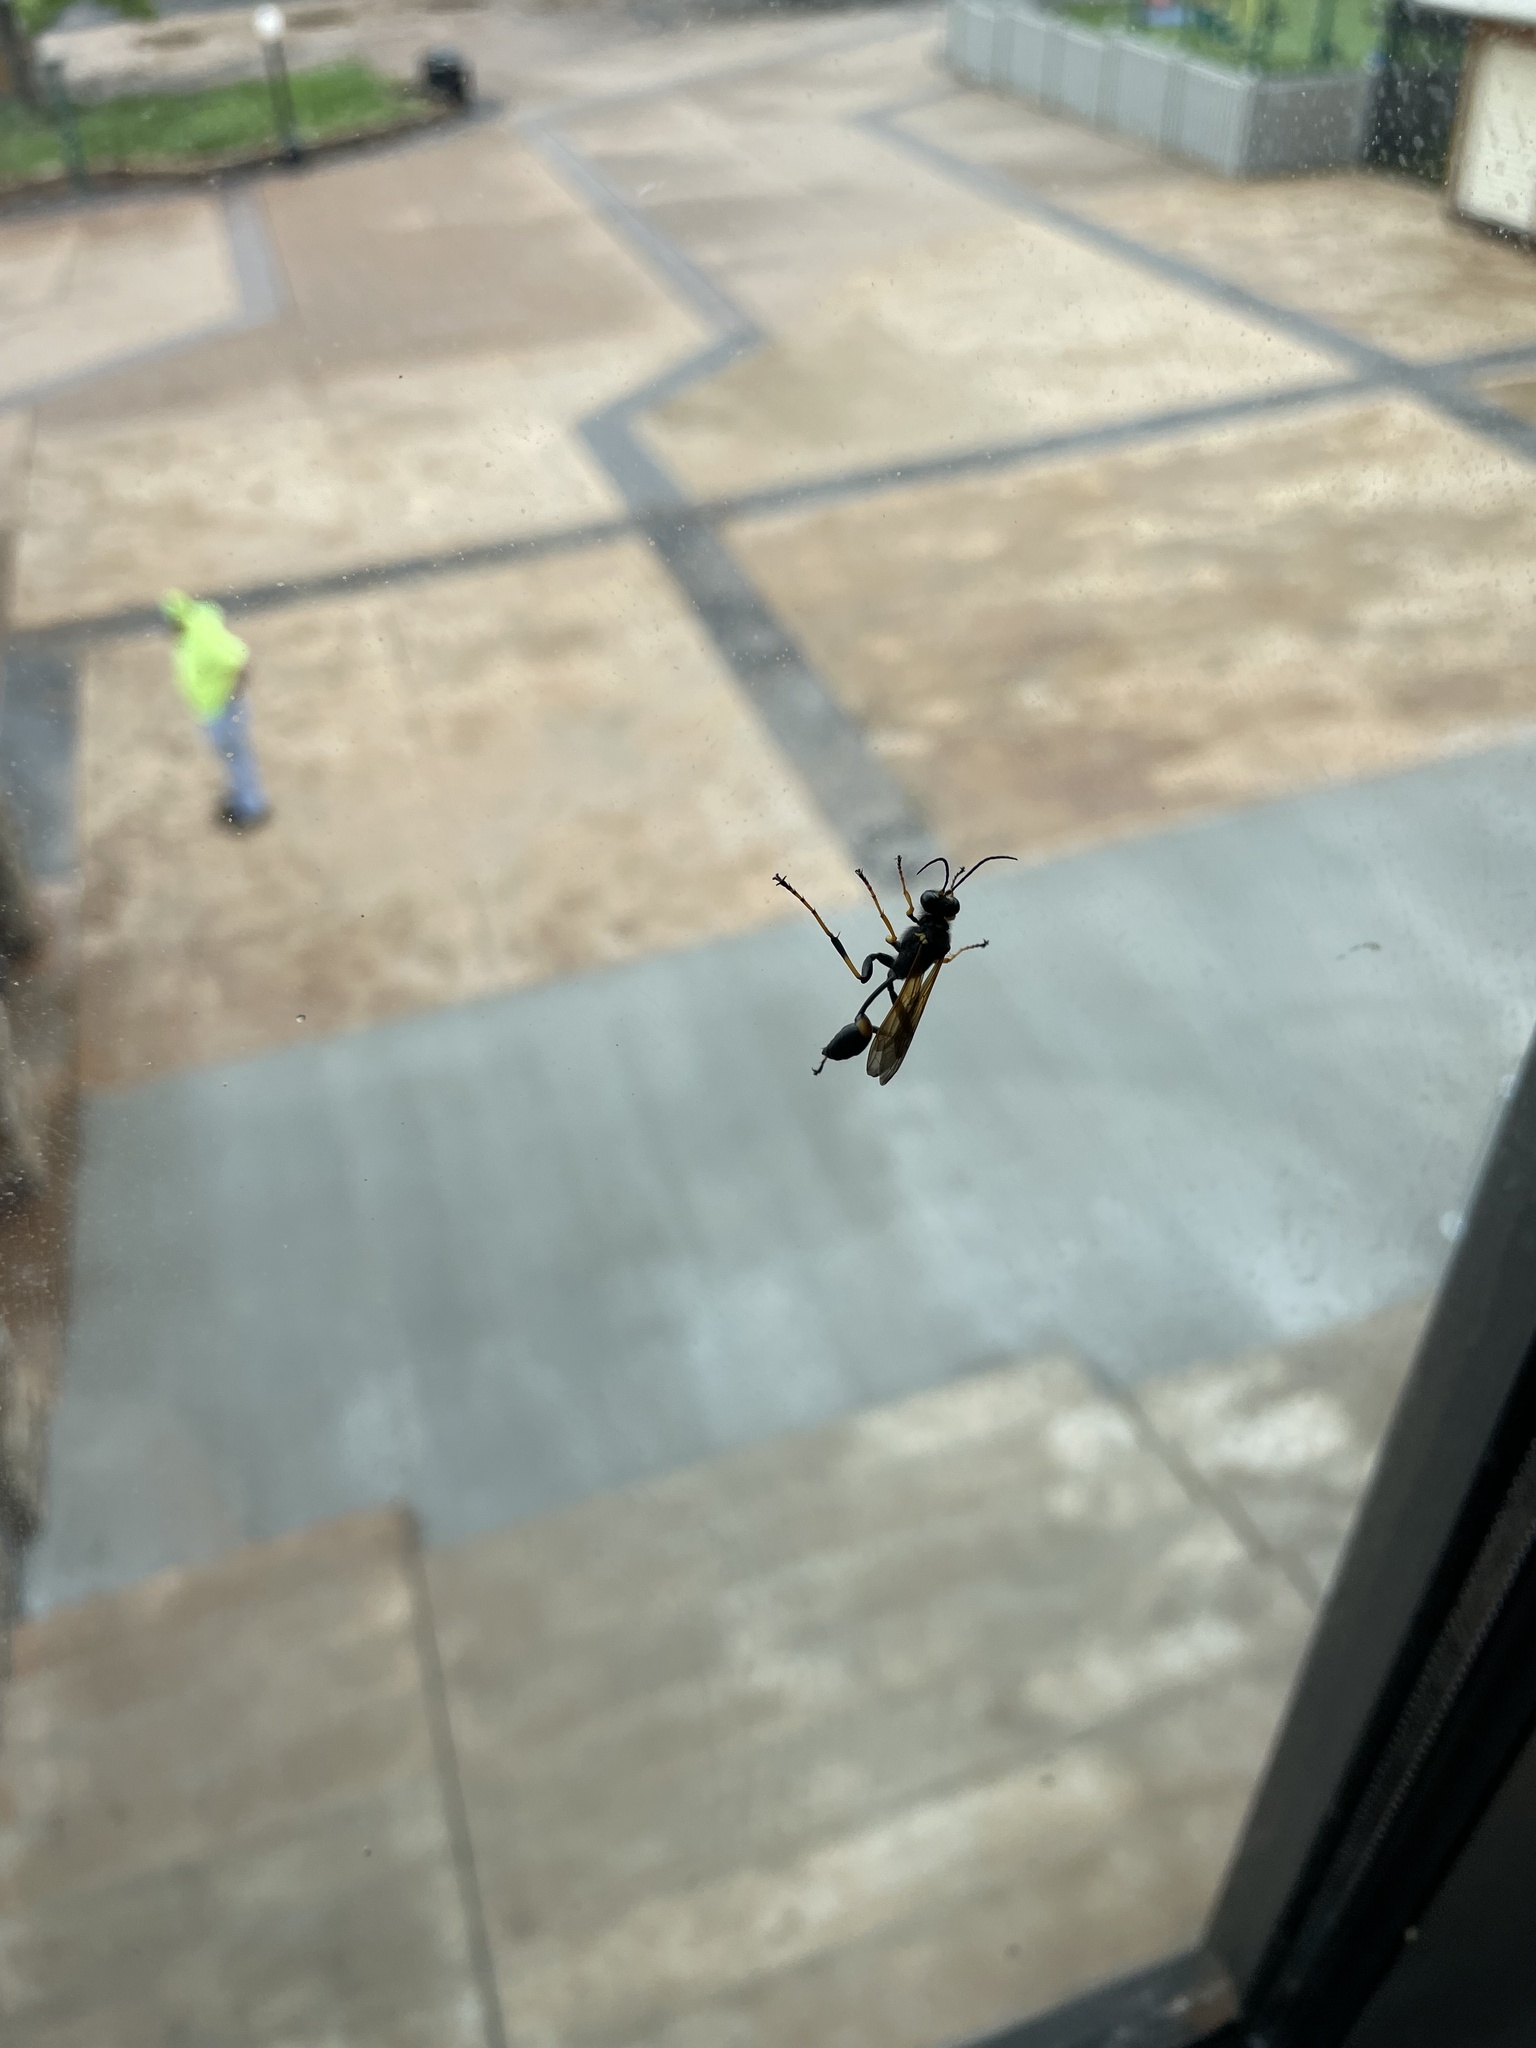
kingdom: Animalia
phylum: Arthropoda
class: Insecta
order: Hymenoptera
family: Sphecidae
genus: Sceliphron
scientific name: Sceliphron caementarium
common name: Mud dauber
